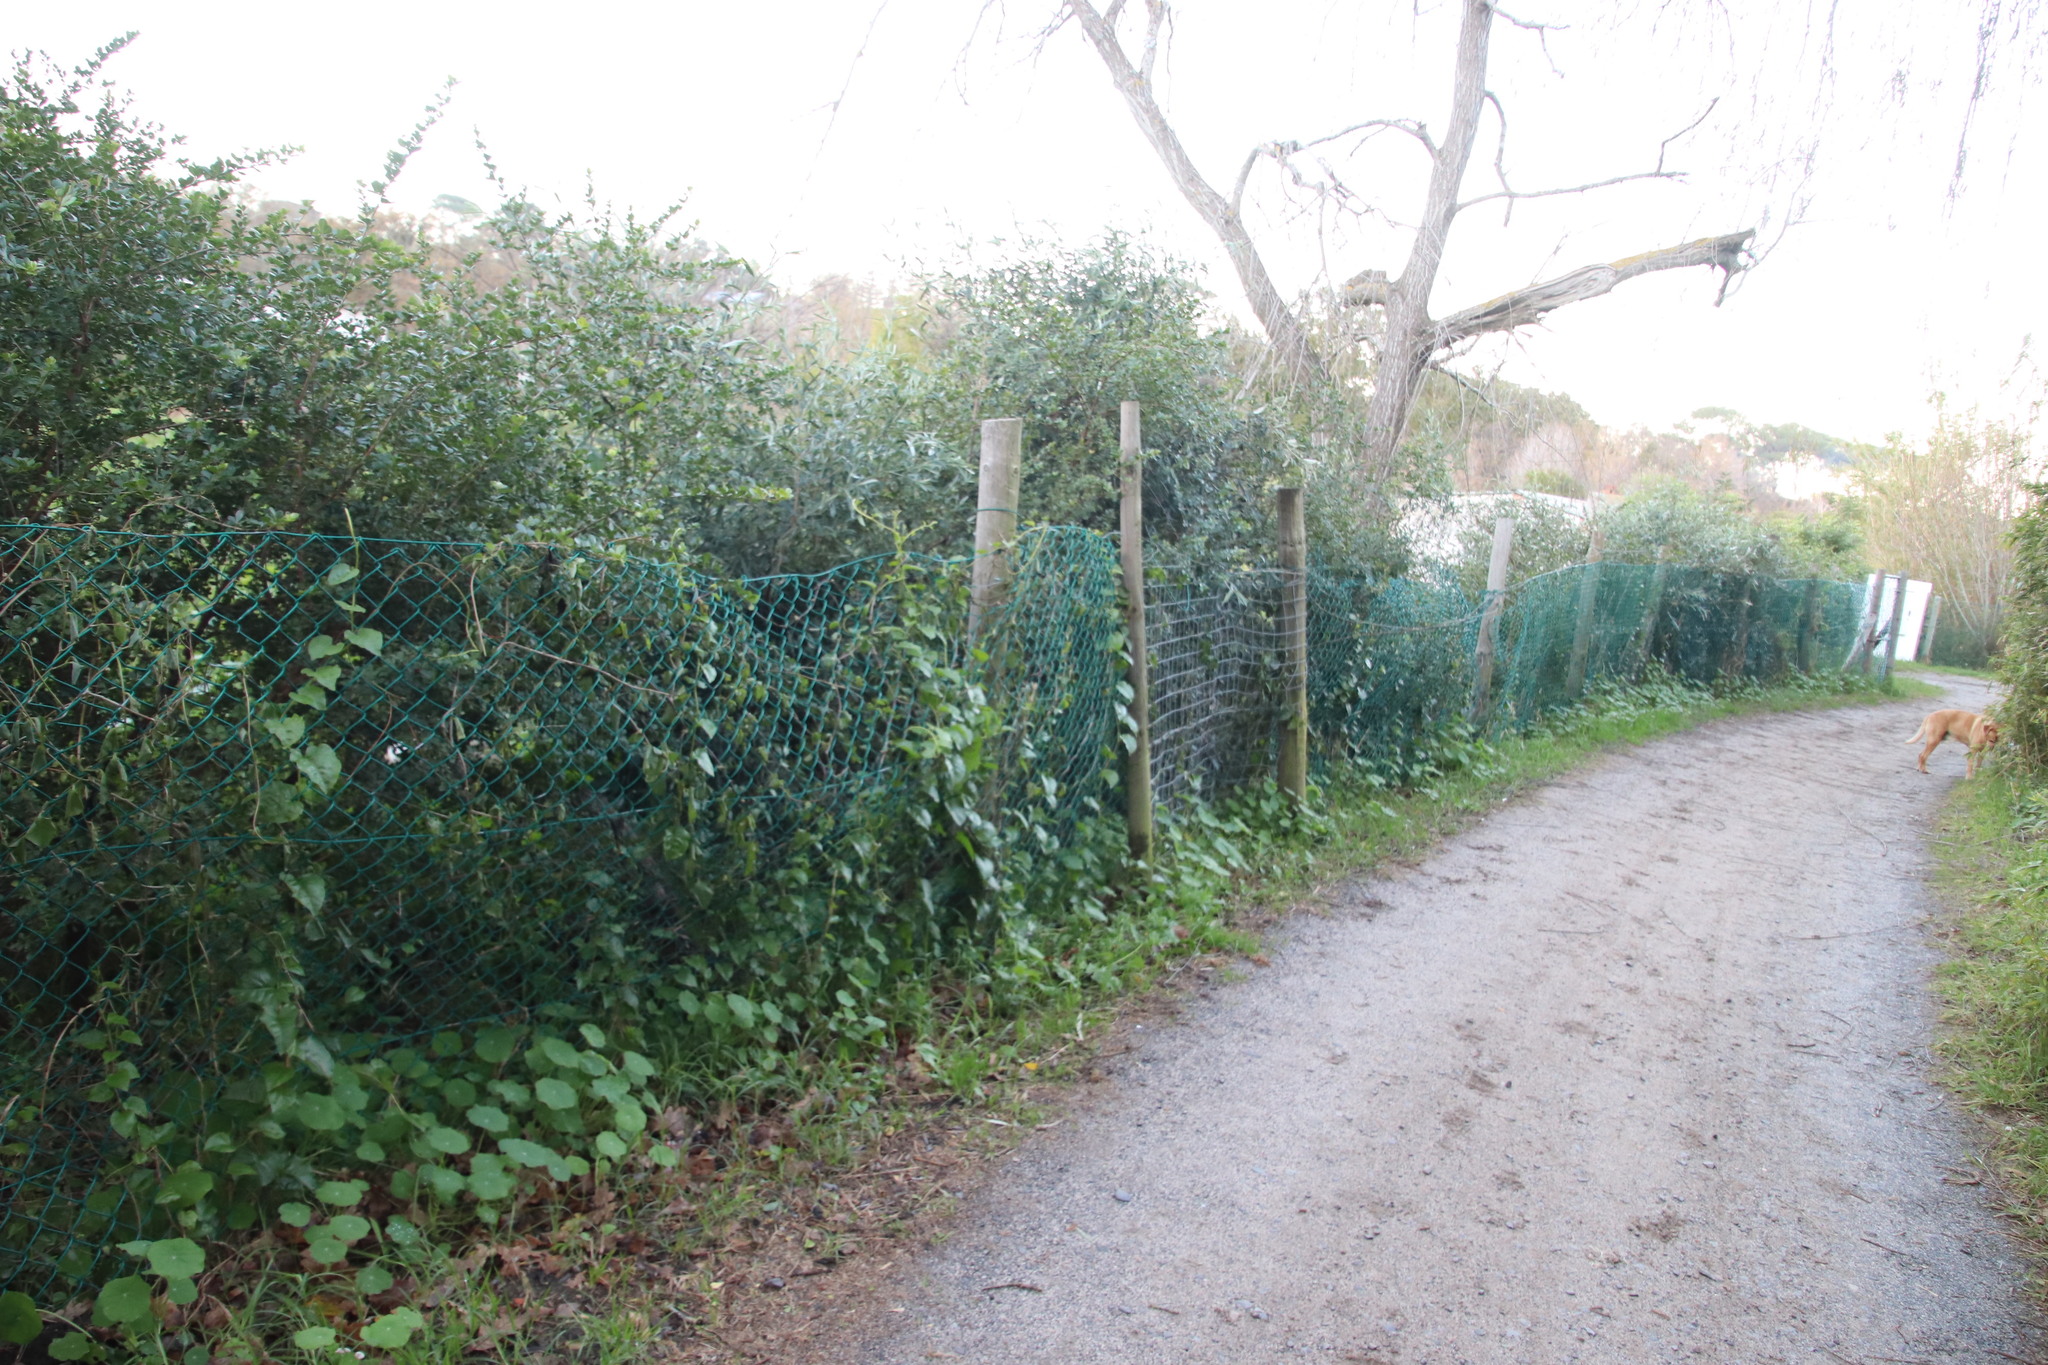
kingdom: Plantae
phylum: Tracheophyta
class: Magnoliopsida
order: Caryophyllales
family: Basellaceae
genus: Anredera
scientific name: Anredera cordifolia
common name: Heartleaf madeiravine
